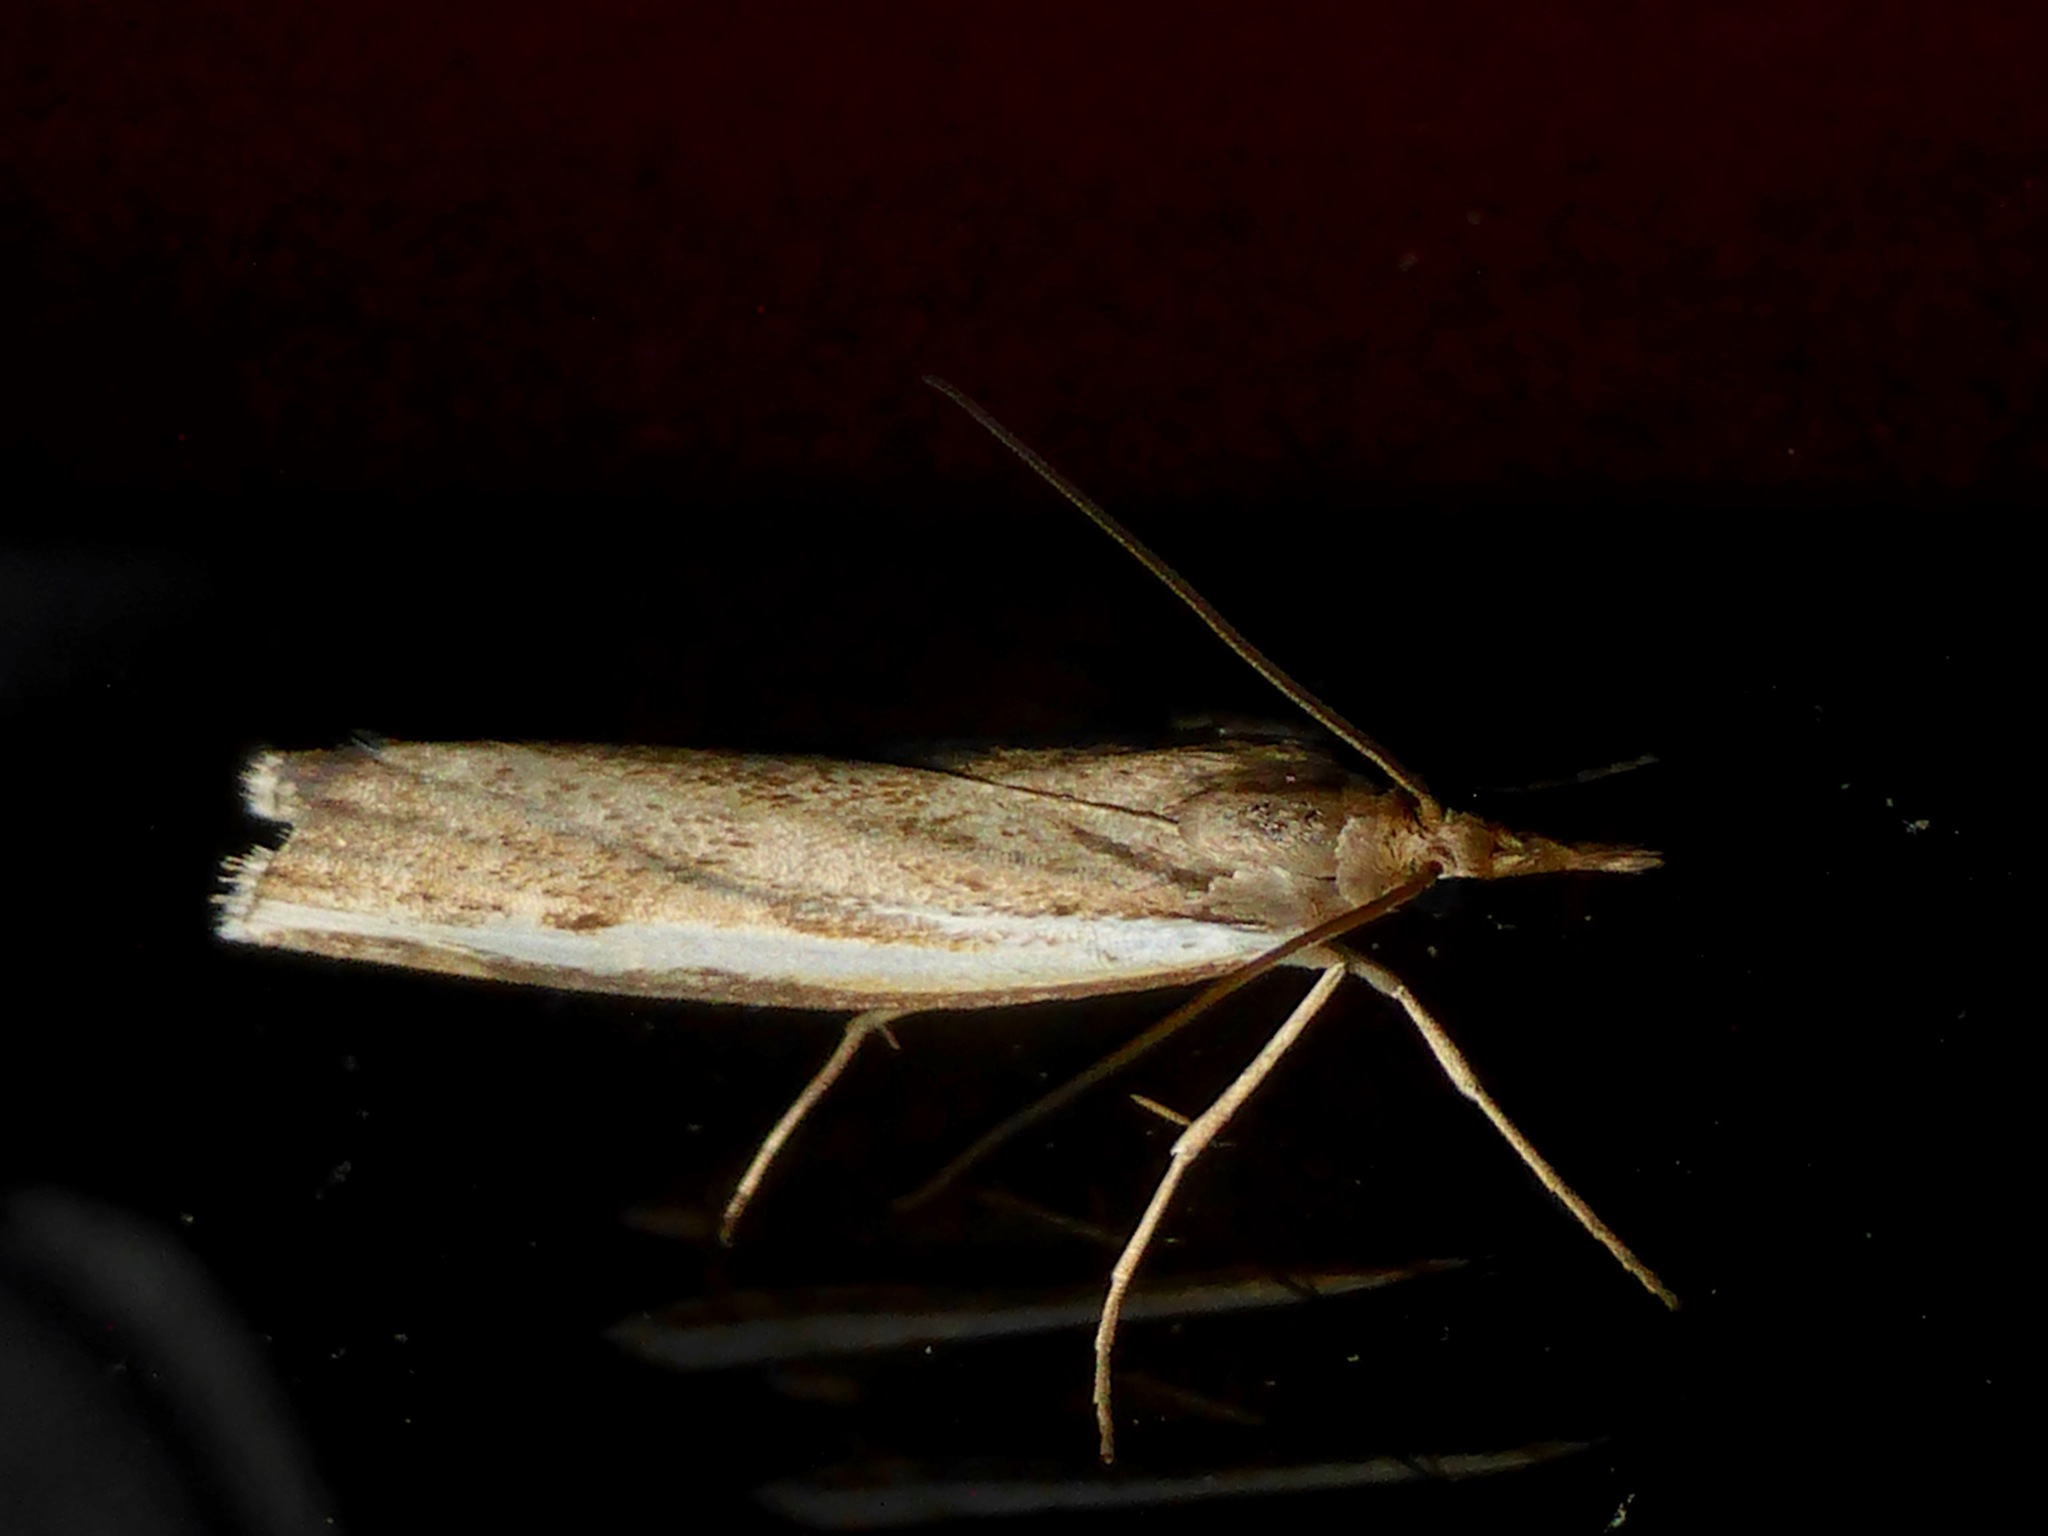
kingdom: Animalia
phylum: Arthropoda
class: Insecta
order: Lepidoptera
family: Crambidae
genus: Orocrambus
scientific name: Orocrambus flexuosellus
